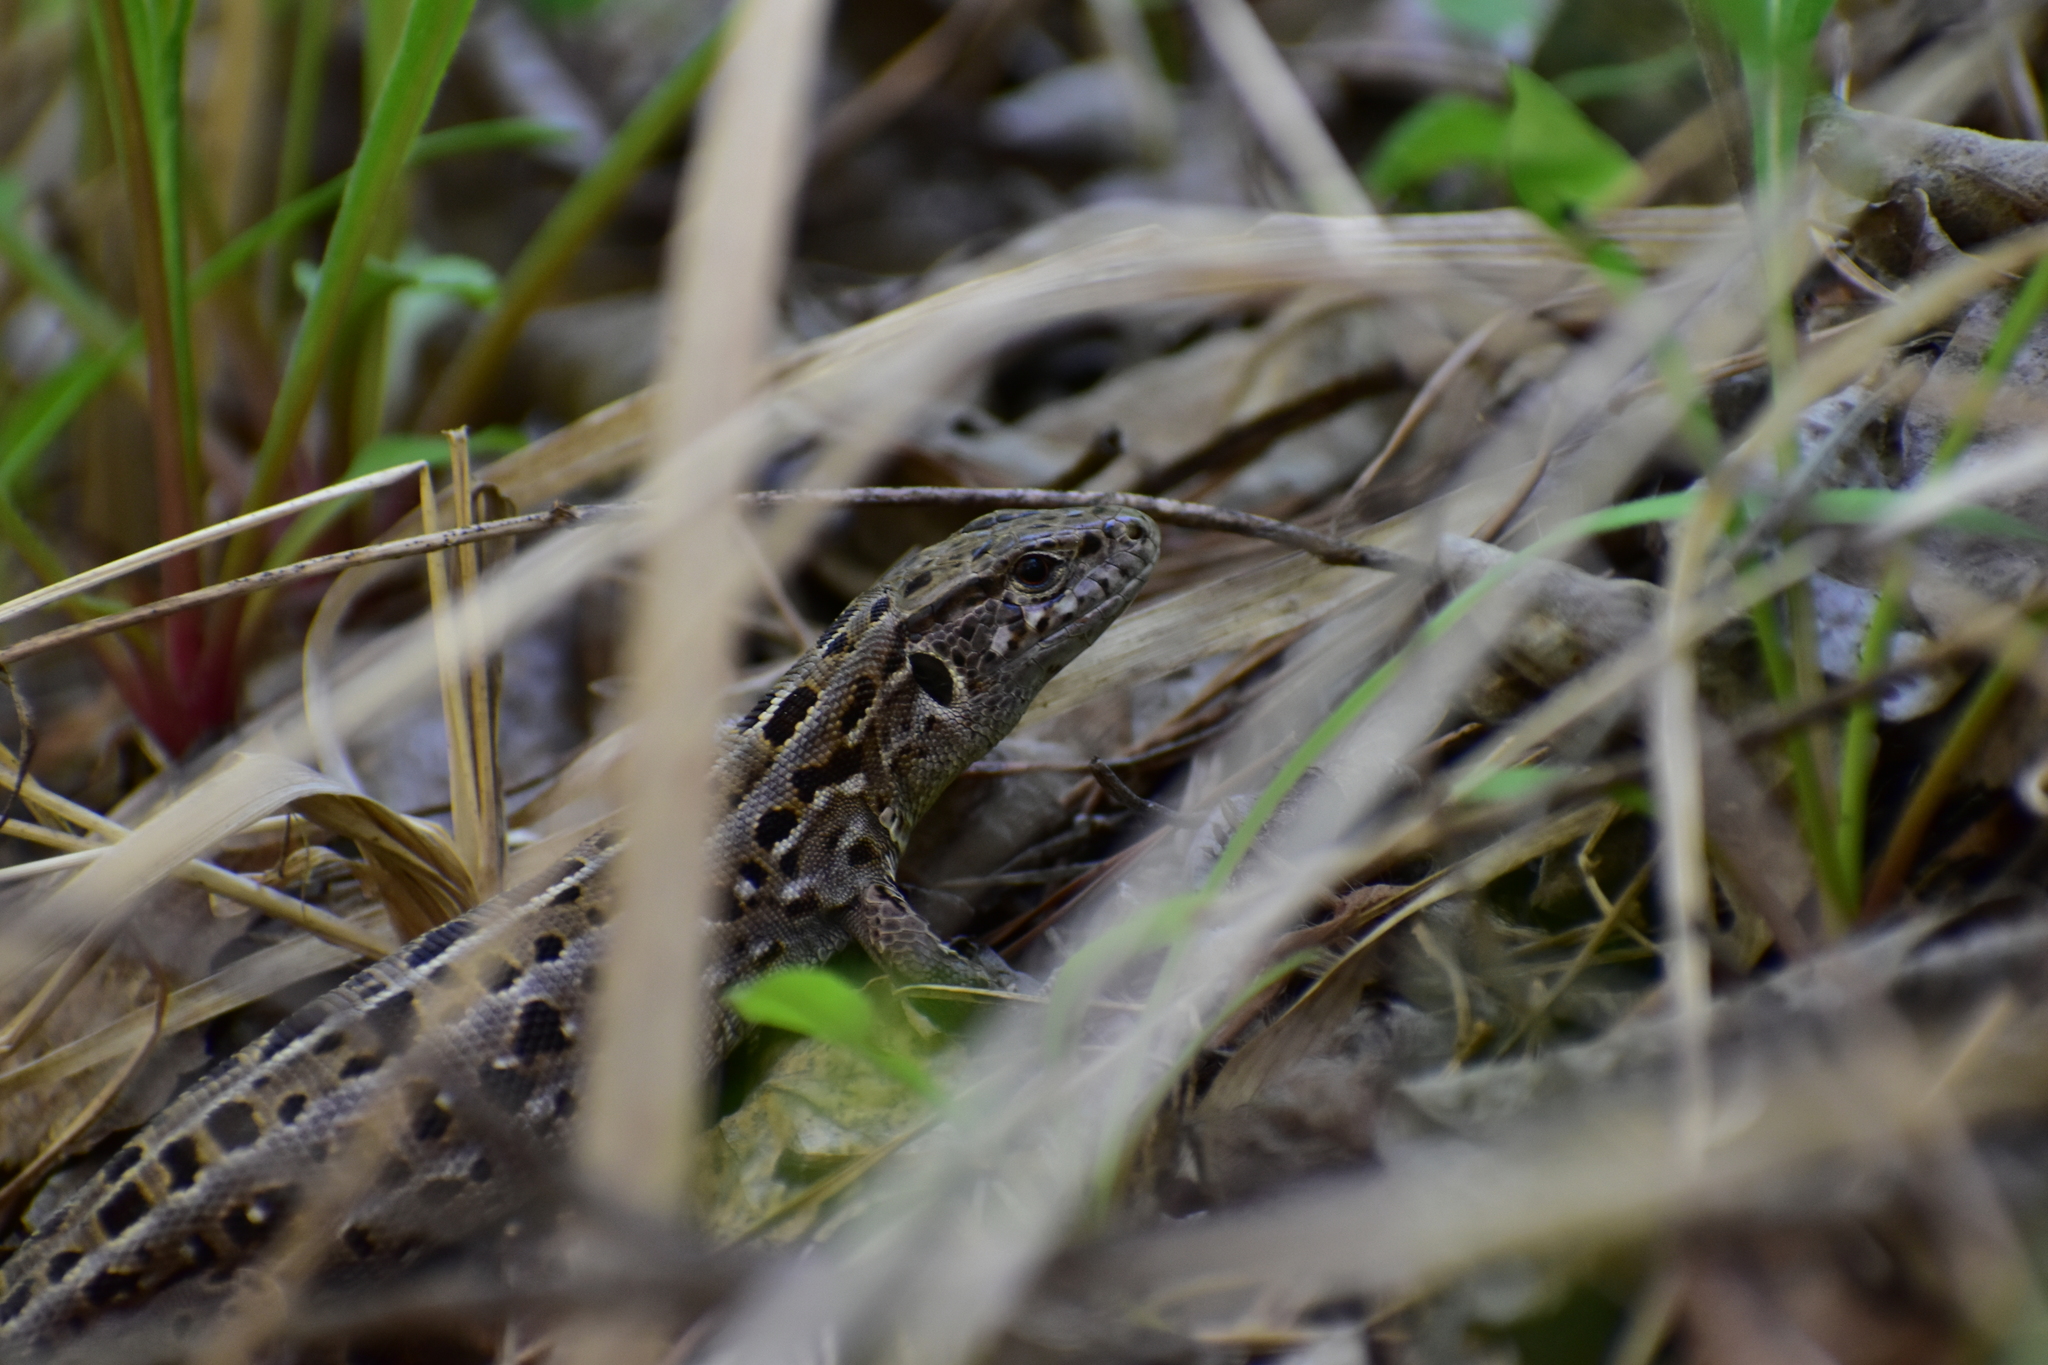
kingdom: Animalia
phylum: Chordata
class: Squamata
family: Lacertidae
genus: Lacerta
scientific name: Lacerta agilis
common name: Sand lizard
